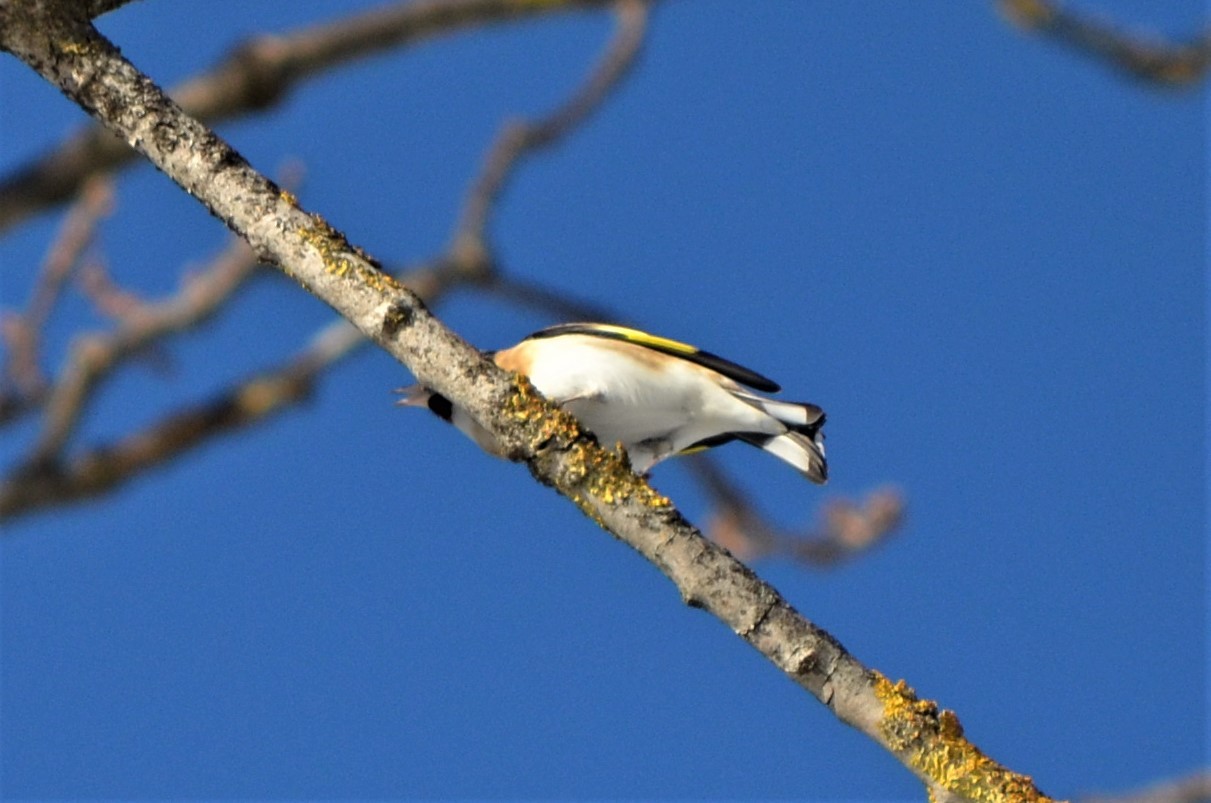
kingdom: Animalia
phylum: Chordata
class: Aves
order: Passeriformes
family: Fringillidae
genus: Carduelis
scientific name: Carduelis carduelis
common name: European goldfinch
